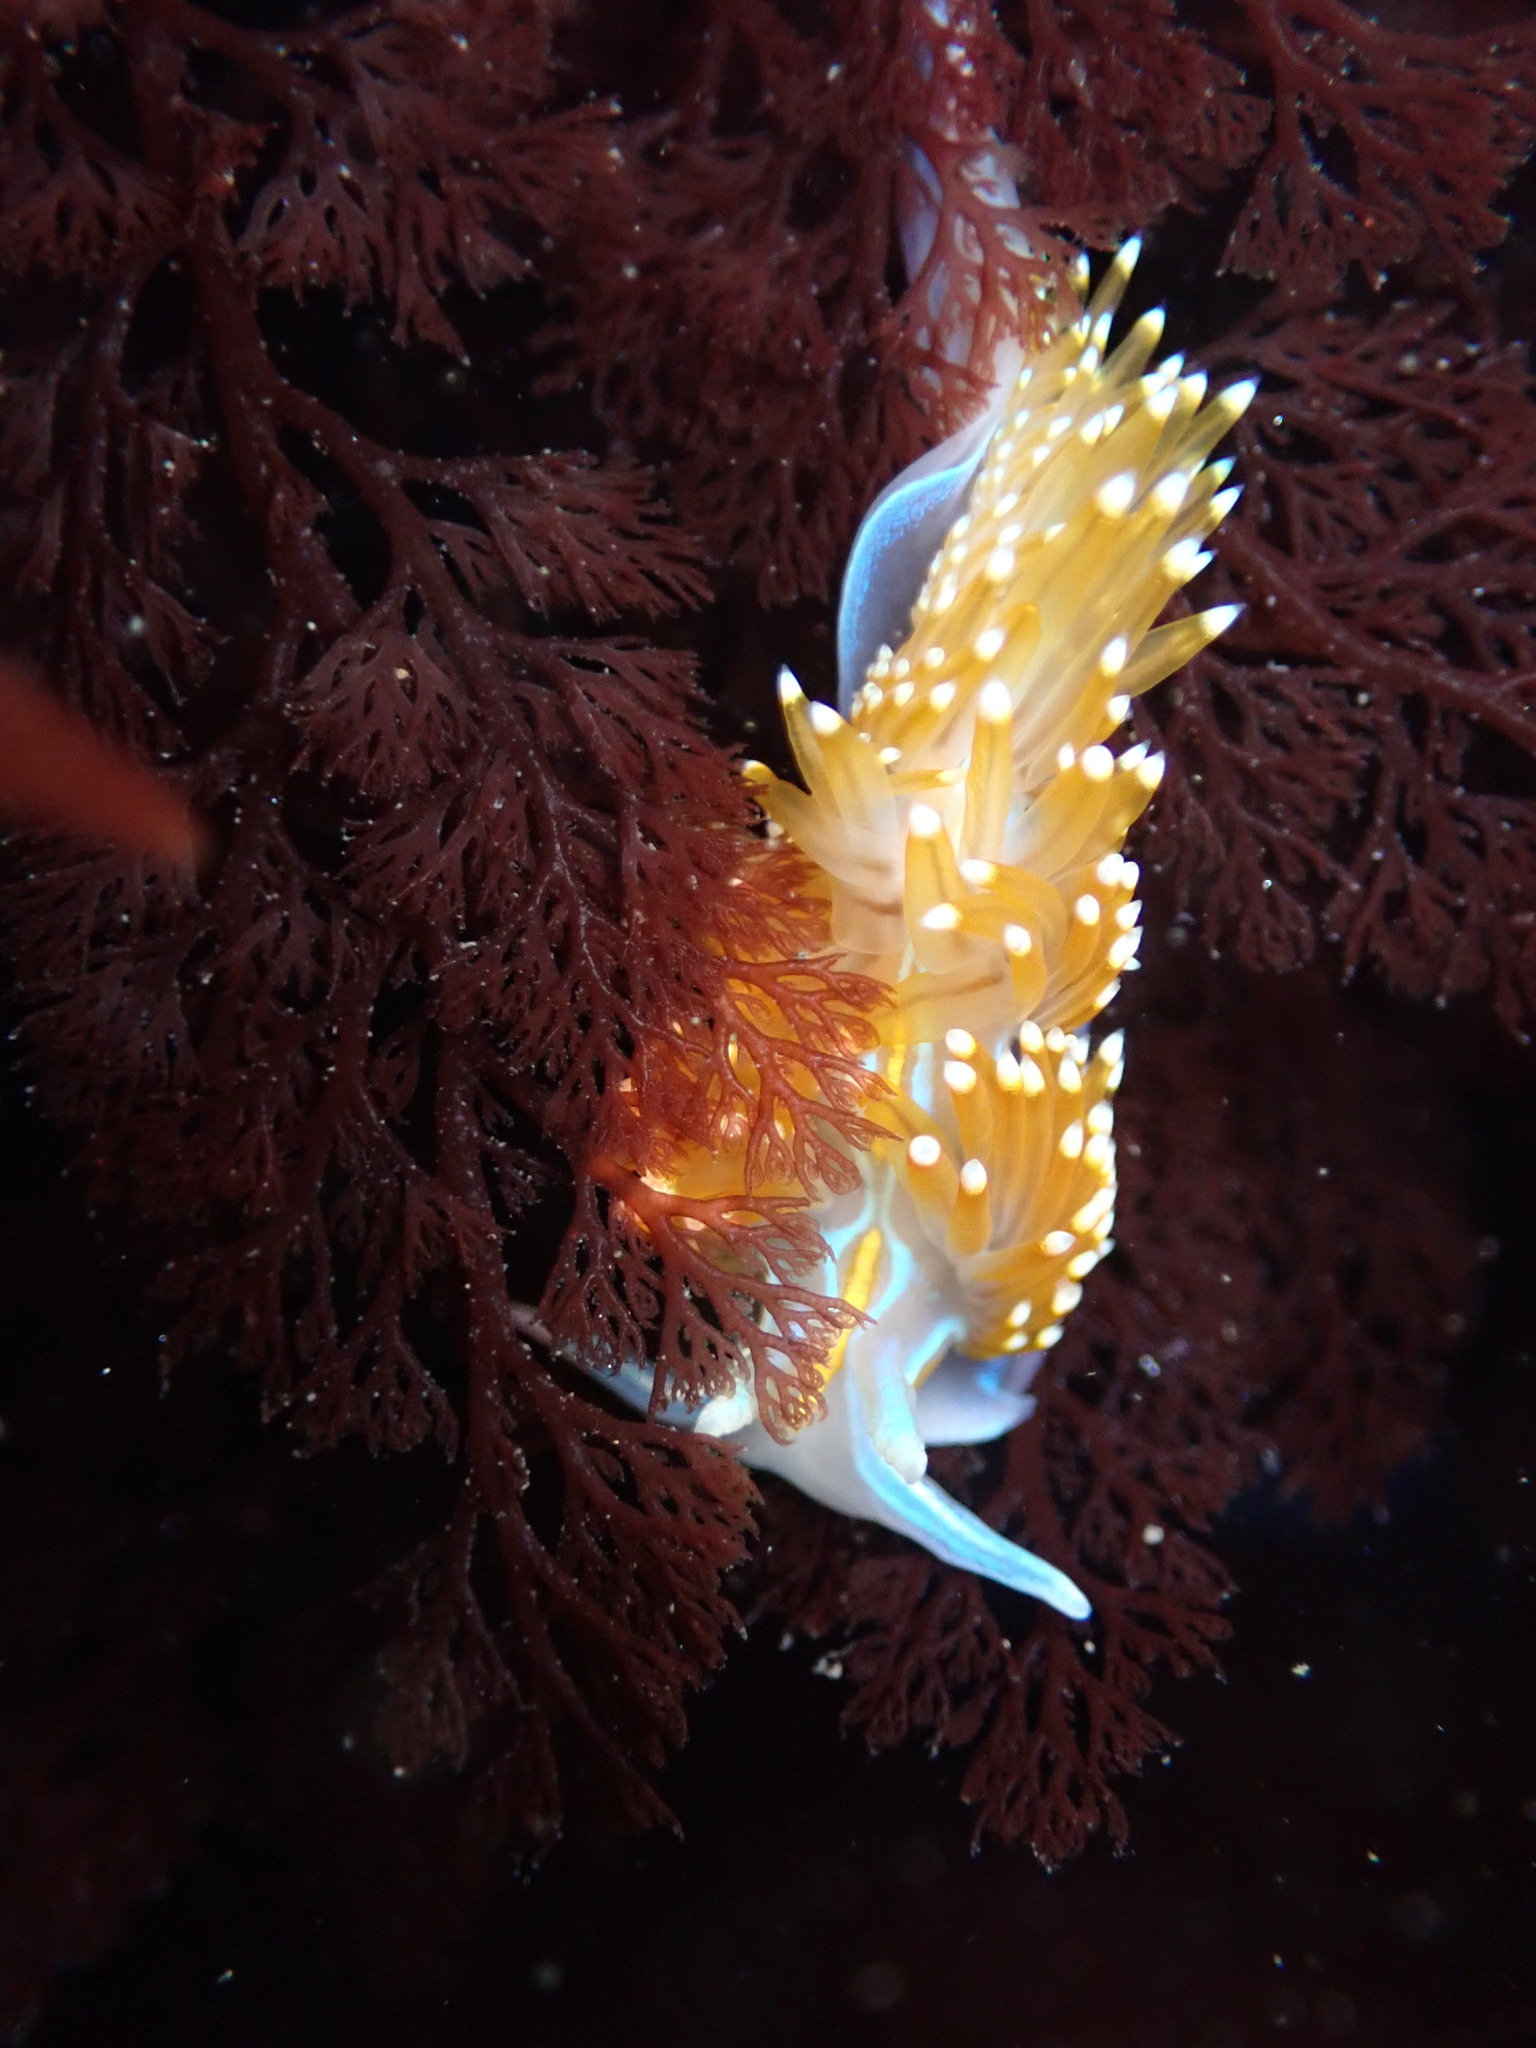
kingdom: Animalia
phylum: Mollusca
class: Gastropoda
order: Nudibranchia
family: Myrrhinidae
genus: Hermissenda
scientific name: Hermissenda opalescens
